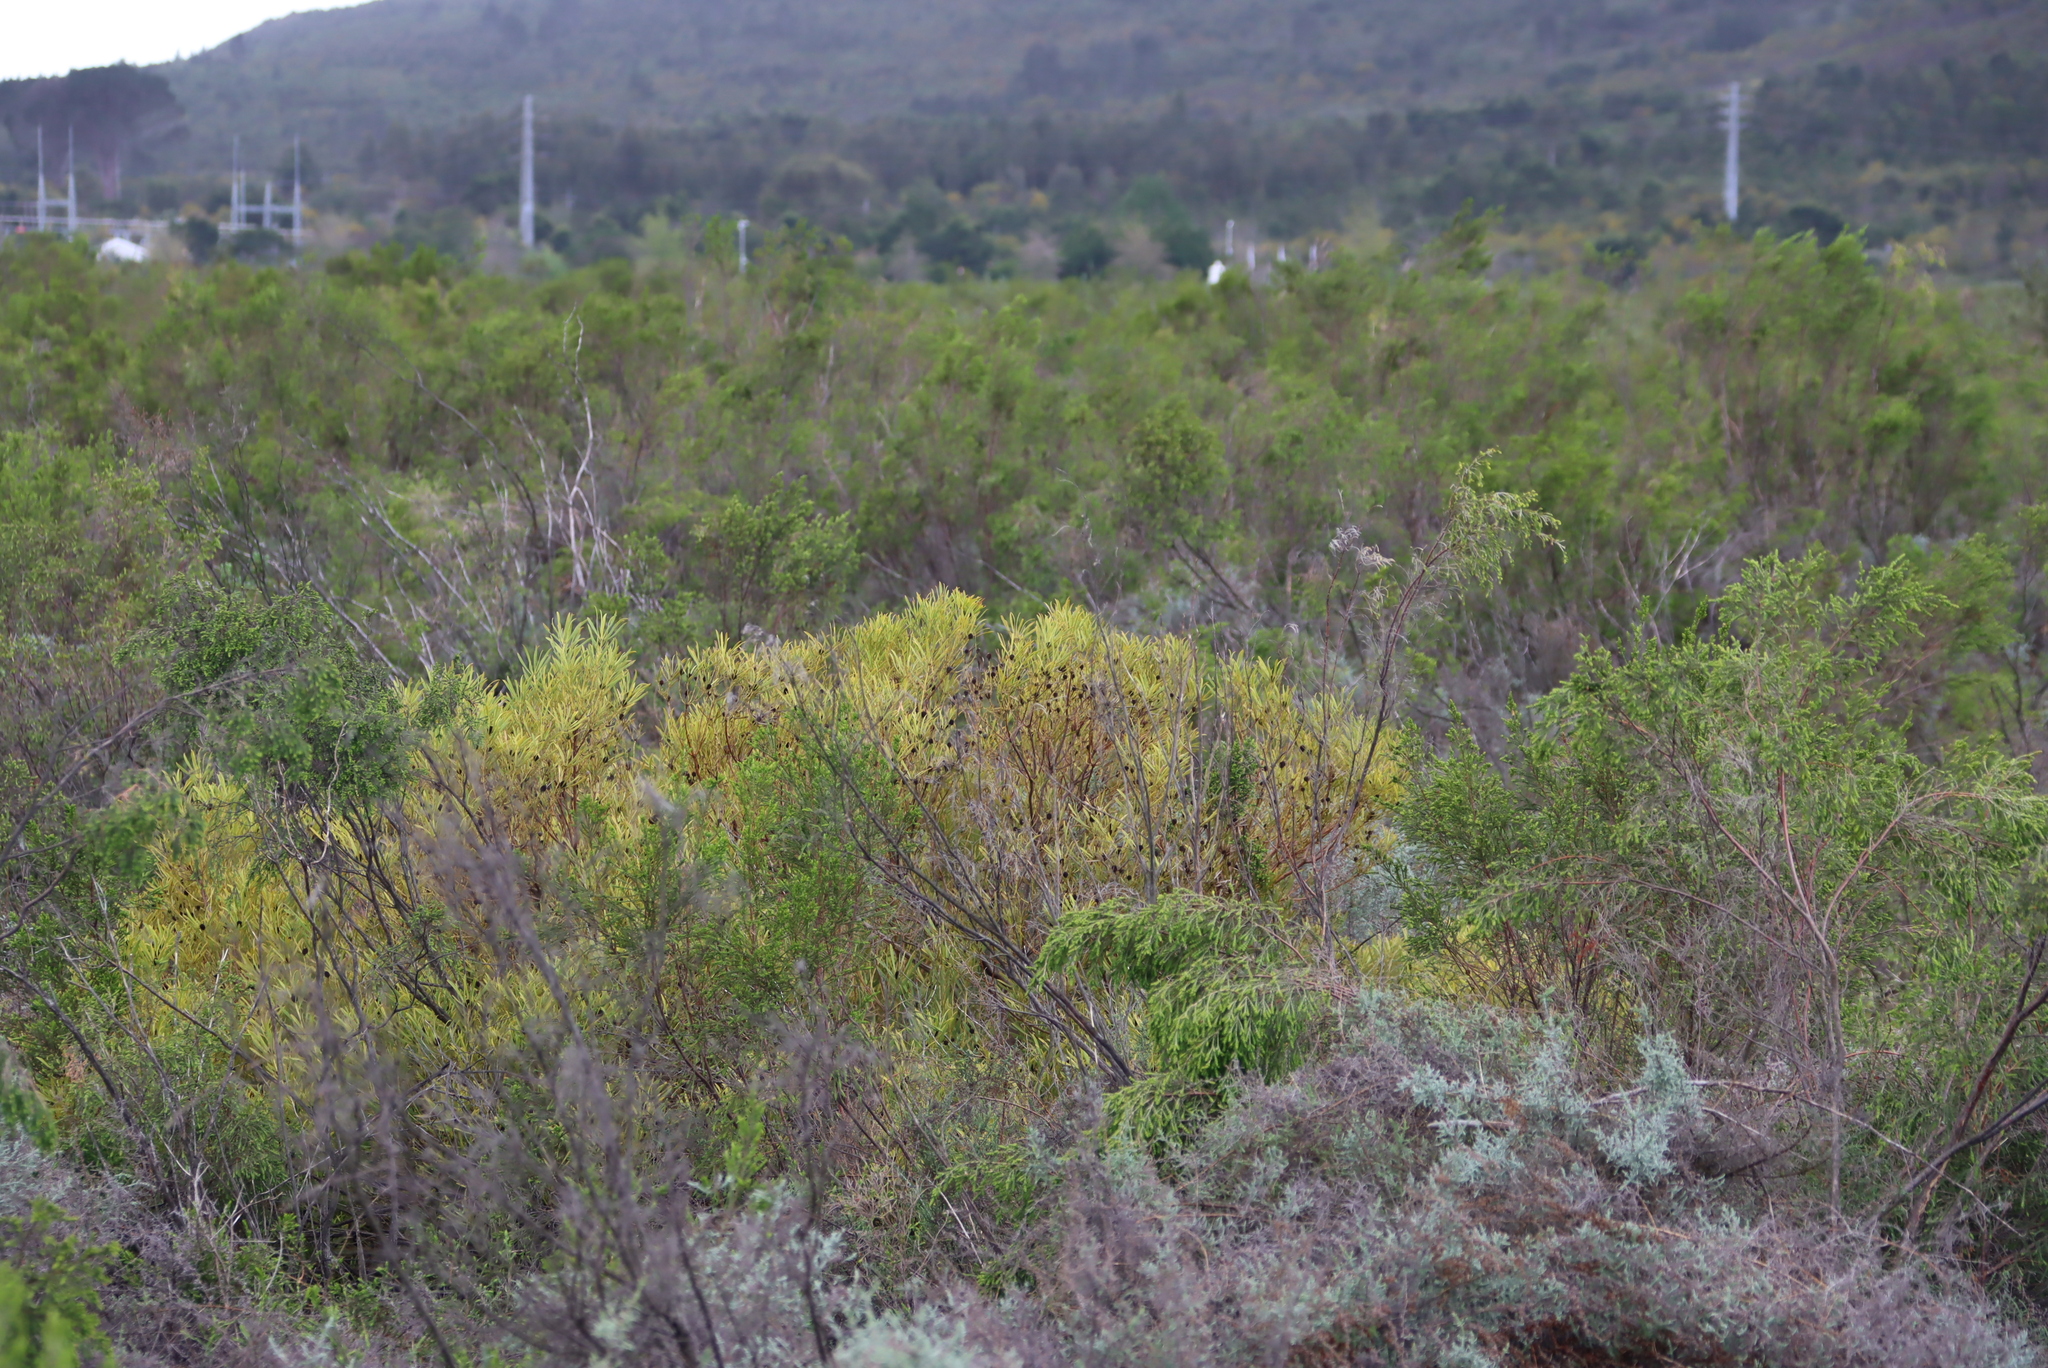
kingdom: Plantae
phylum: Tracheophyta
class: Magnoliopsida
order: Proteales
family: Proteaceae
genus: Leucadendron
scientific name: Leucadendron salignum
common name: Common sunshine conebush
